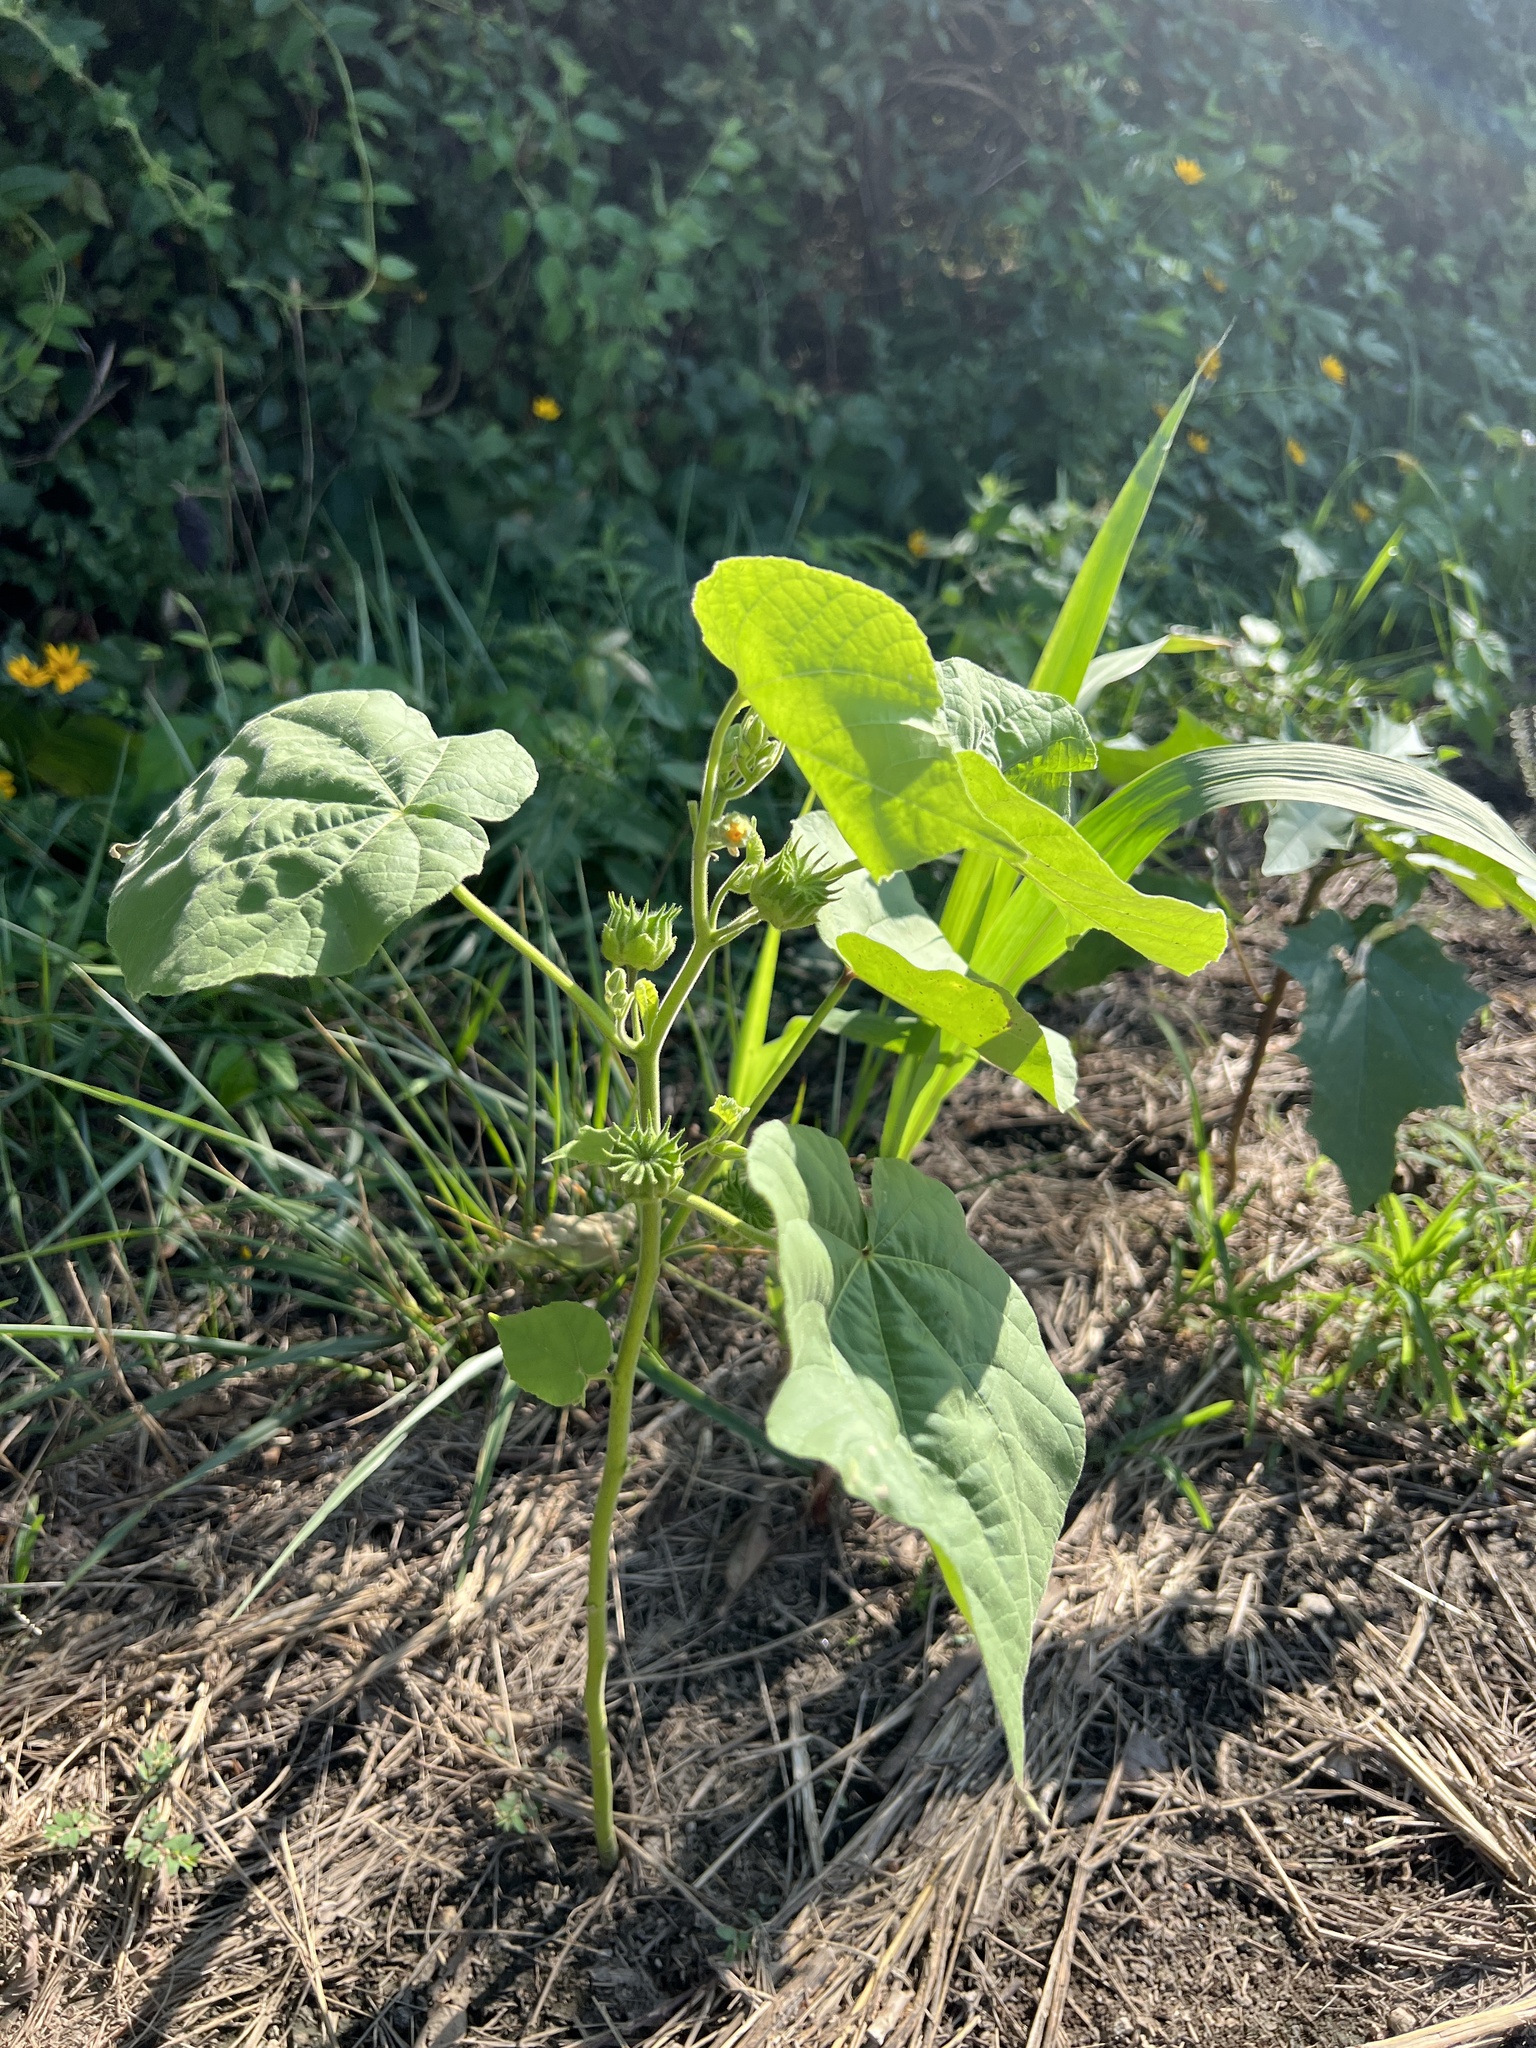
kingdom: Plantae
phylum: Tracheophyta
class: Magnoliopsida
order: Malvales
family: Malvaceae
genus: Abutilon
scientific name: Abutilon theophrasti
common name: Velvetleaf
